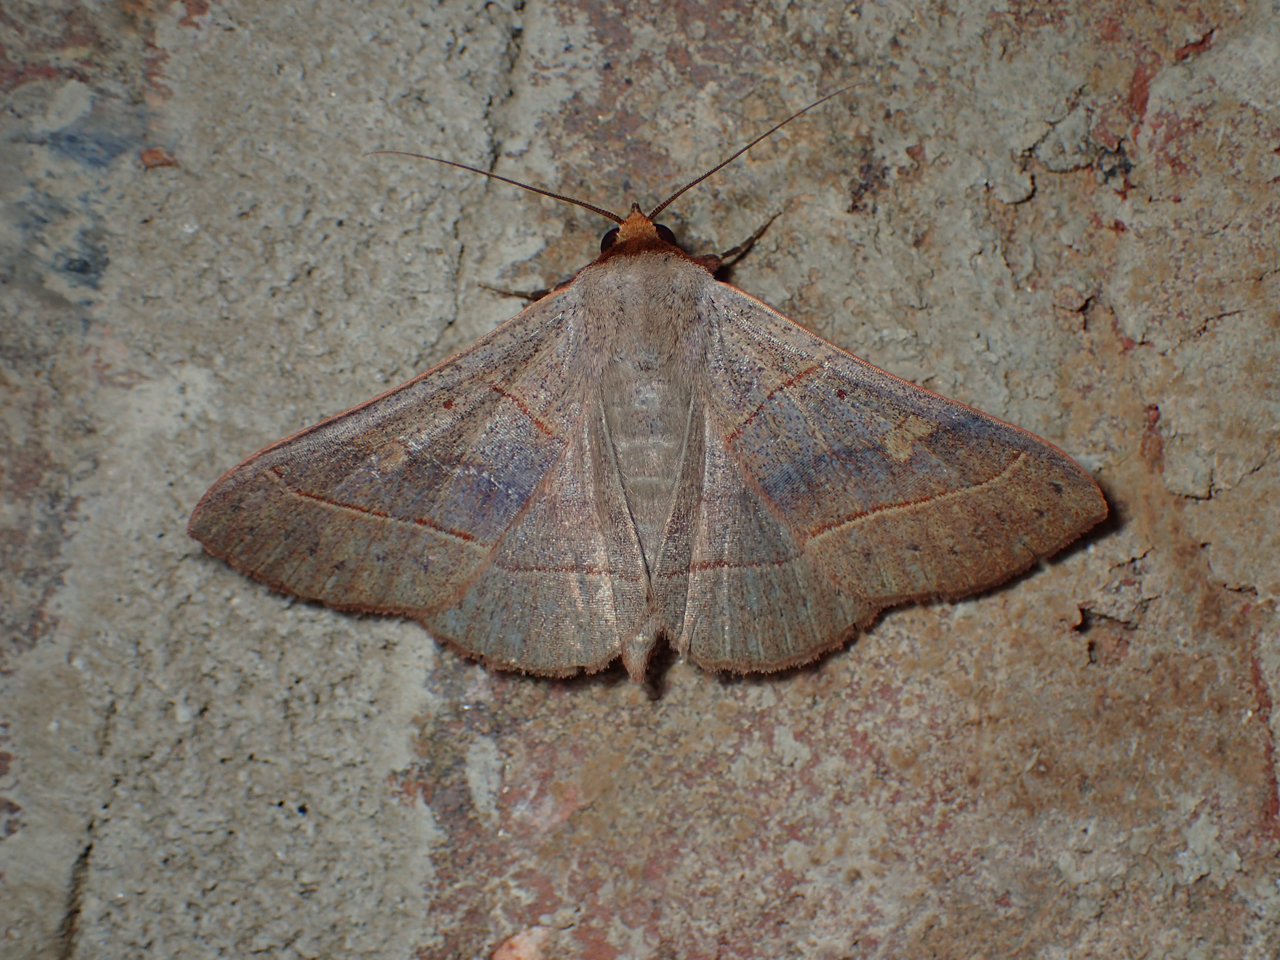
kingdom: Animalia
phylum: Arthropoda
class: Insecta
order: Lepidoptera
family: Erebidae
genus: Panopoda
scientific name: Panopoda rufimargo
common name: Red-lined panopoda moth
